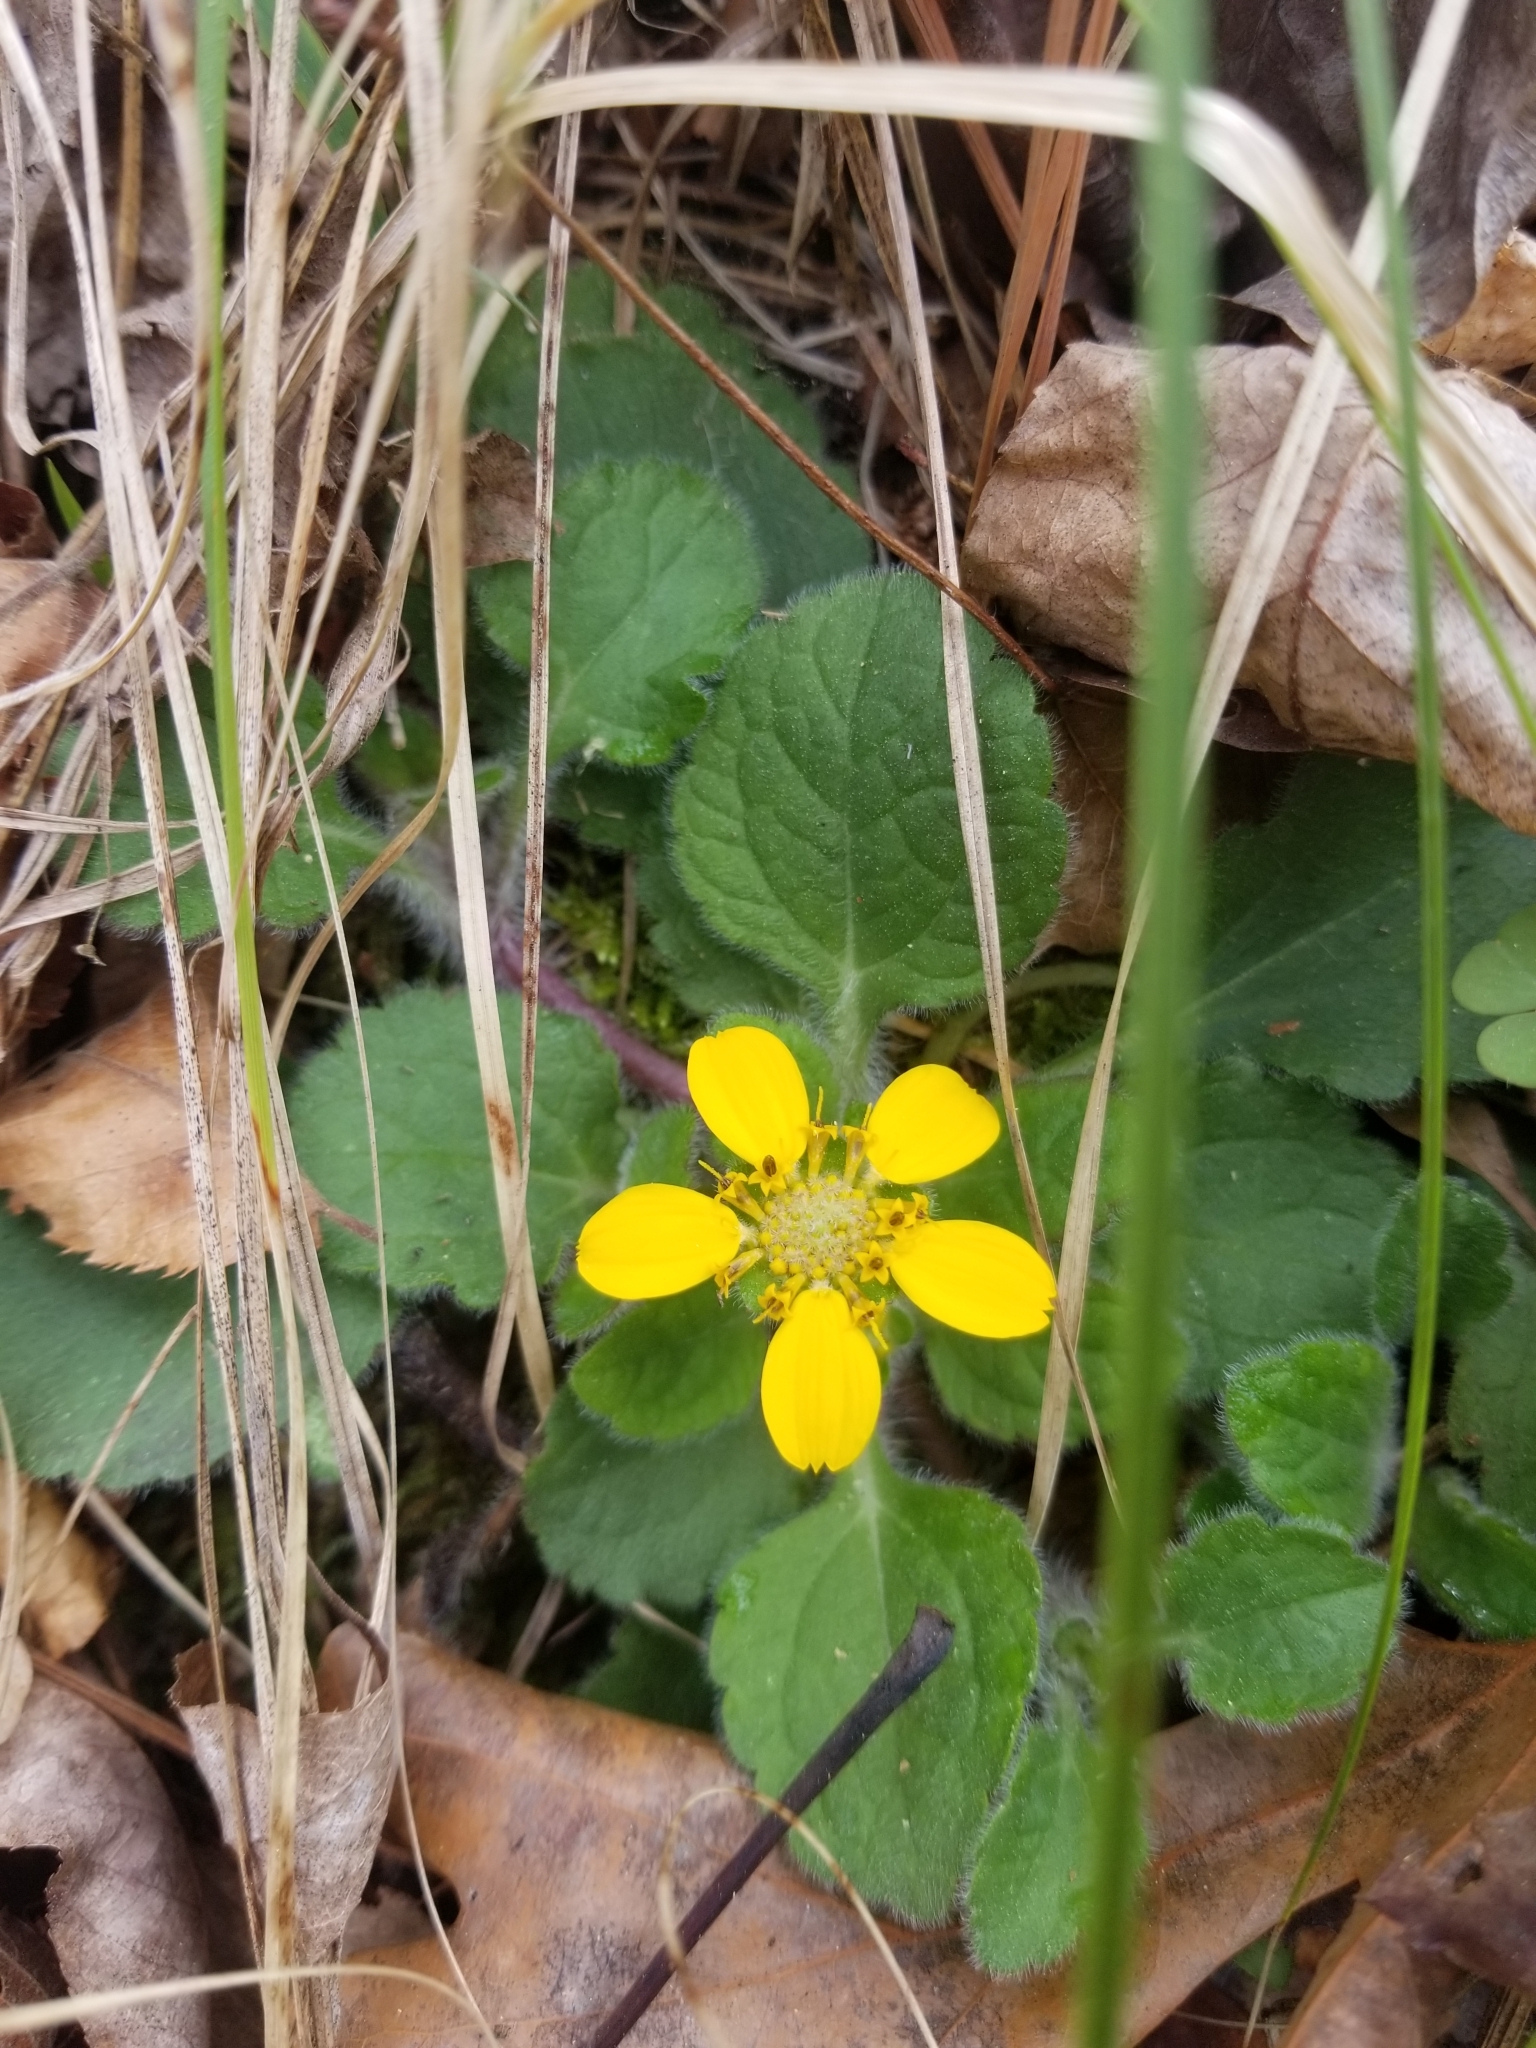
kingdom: Plantae
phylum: Tracheophyta
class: Magnoliopsida
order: Asterales
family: Asteraceae
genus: Chrysogonum
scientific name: Chrysogonum virginianum
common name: Golden-knee
